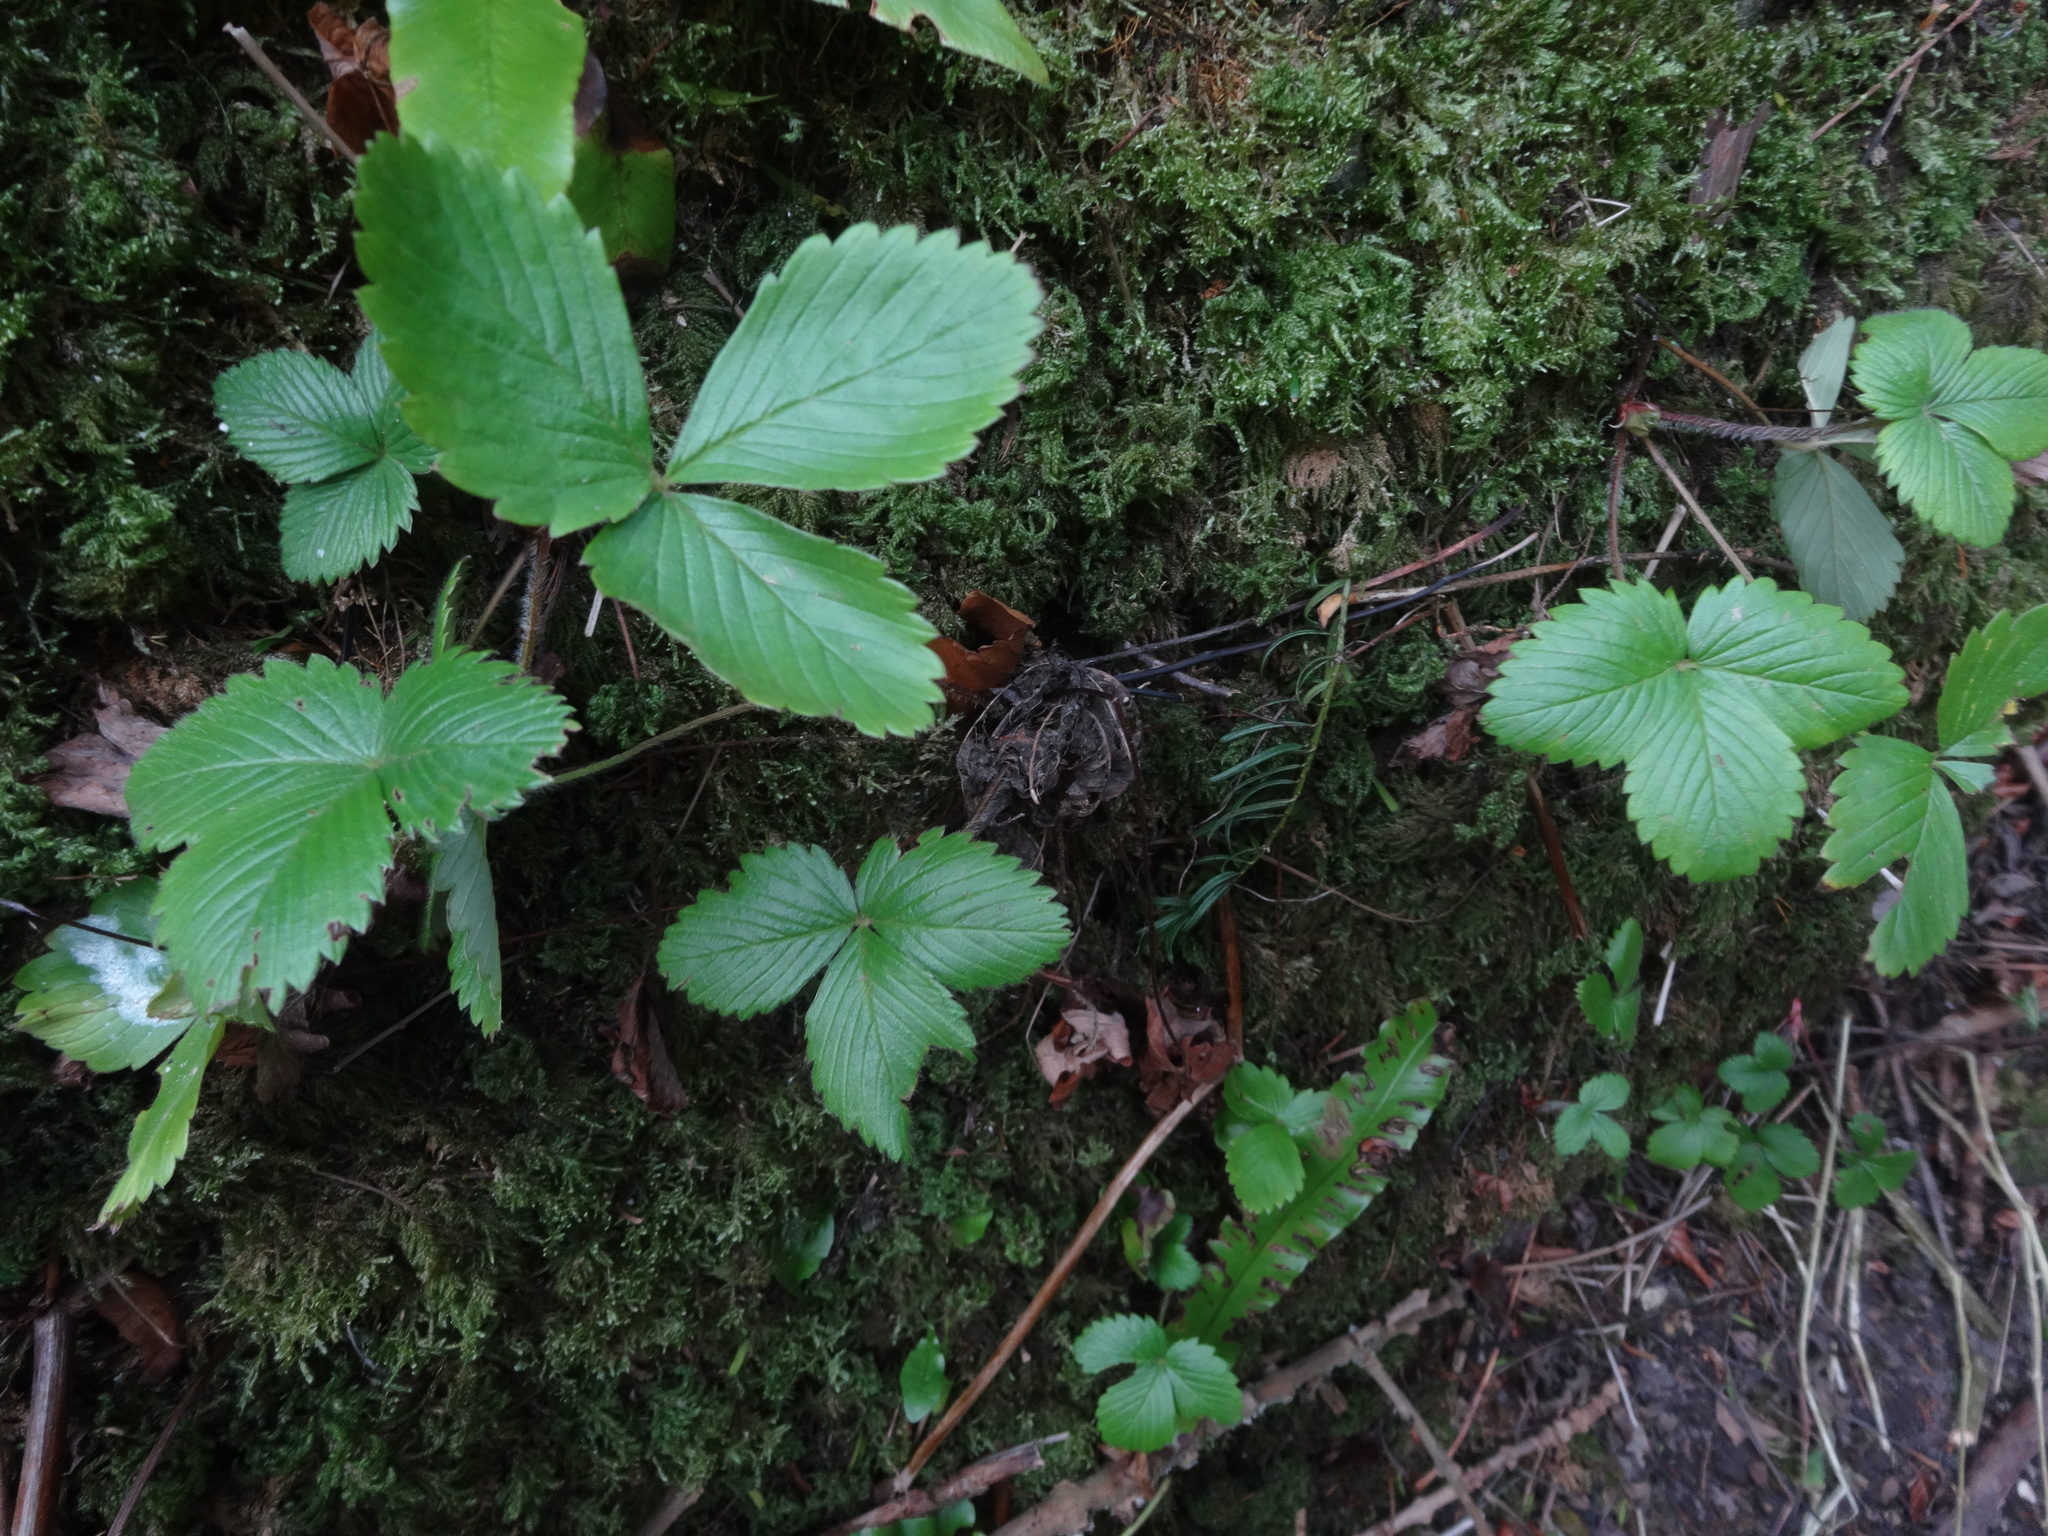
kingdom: Plantae
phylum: Tracheophyta
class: Magnoliopsida
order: Rosales
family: Rosaceae
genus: Fragaria
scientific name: Fragaria vesca
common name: Wild strawberry
